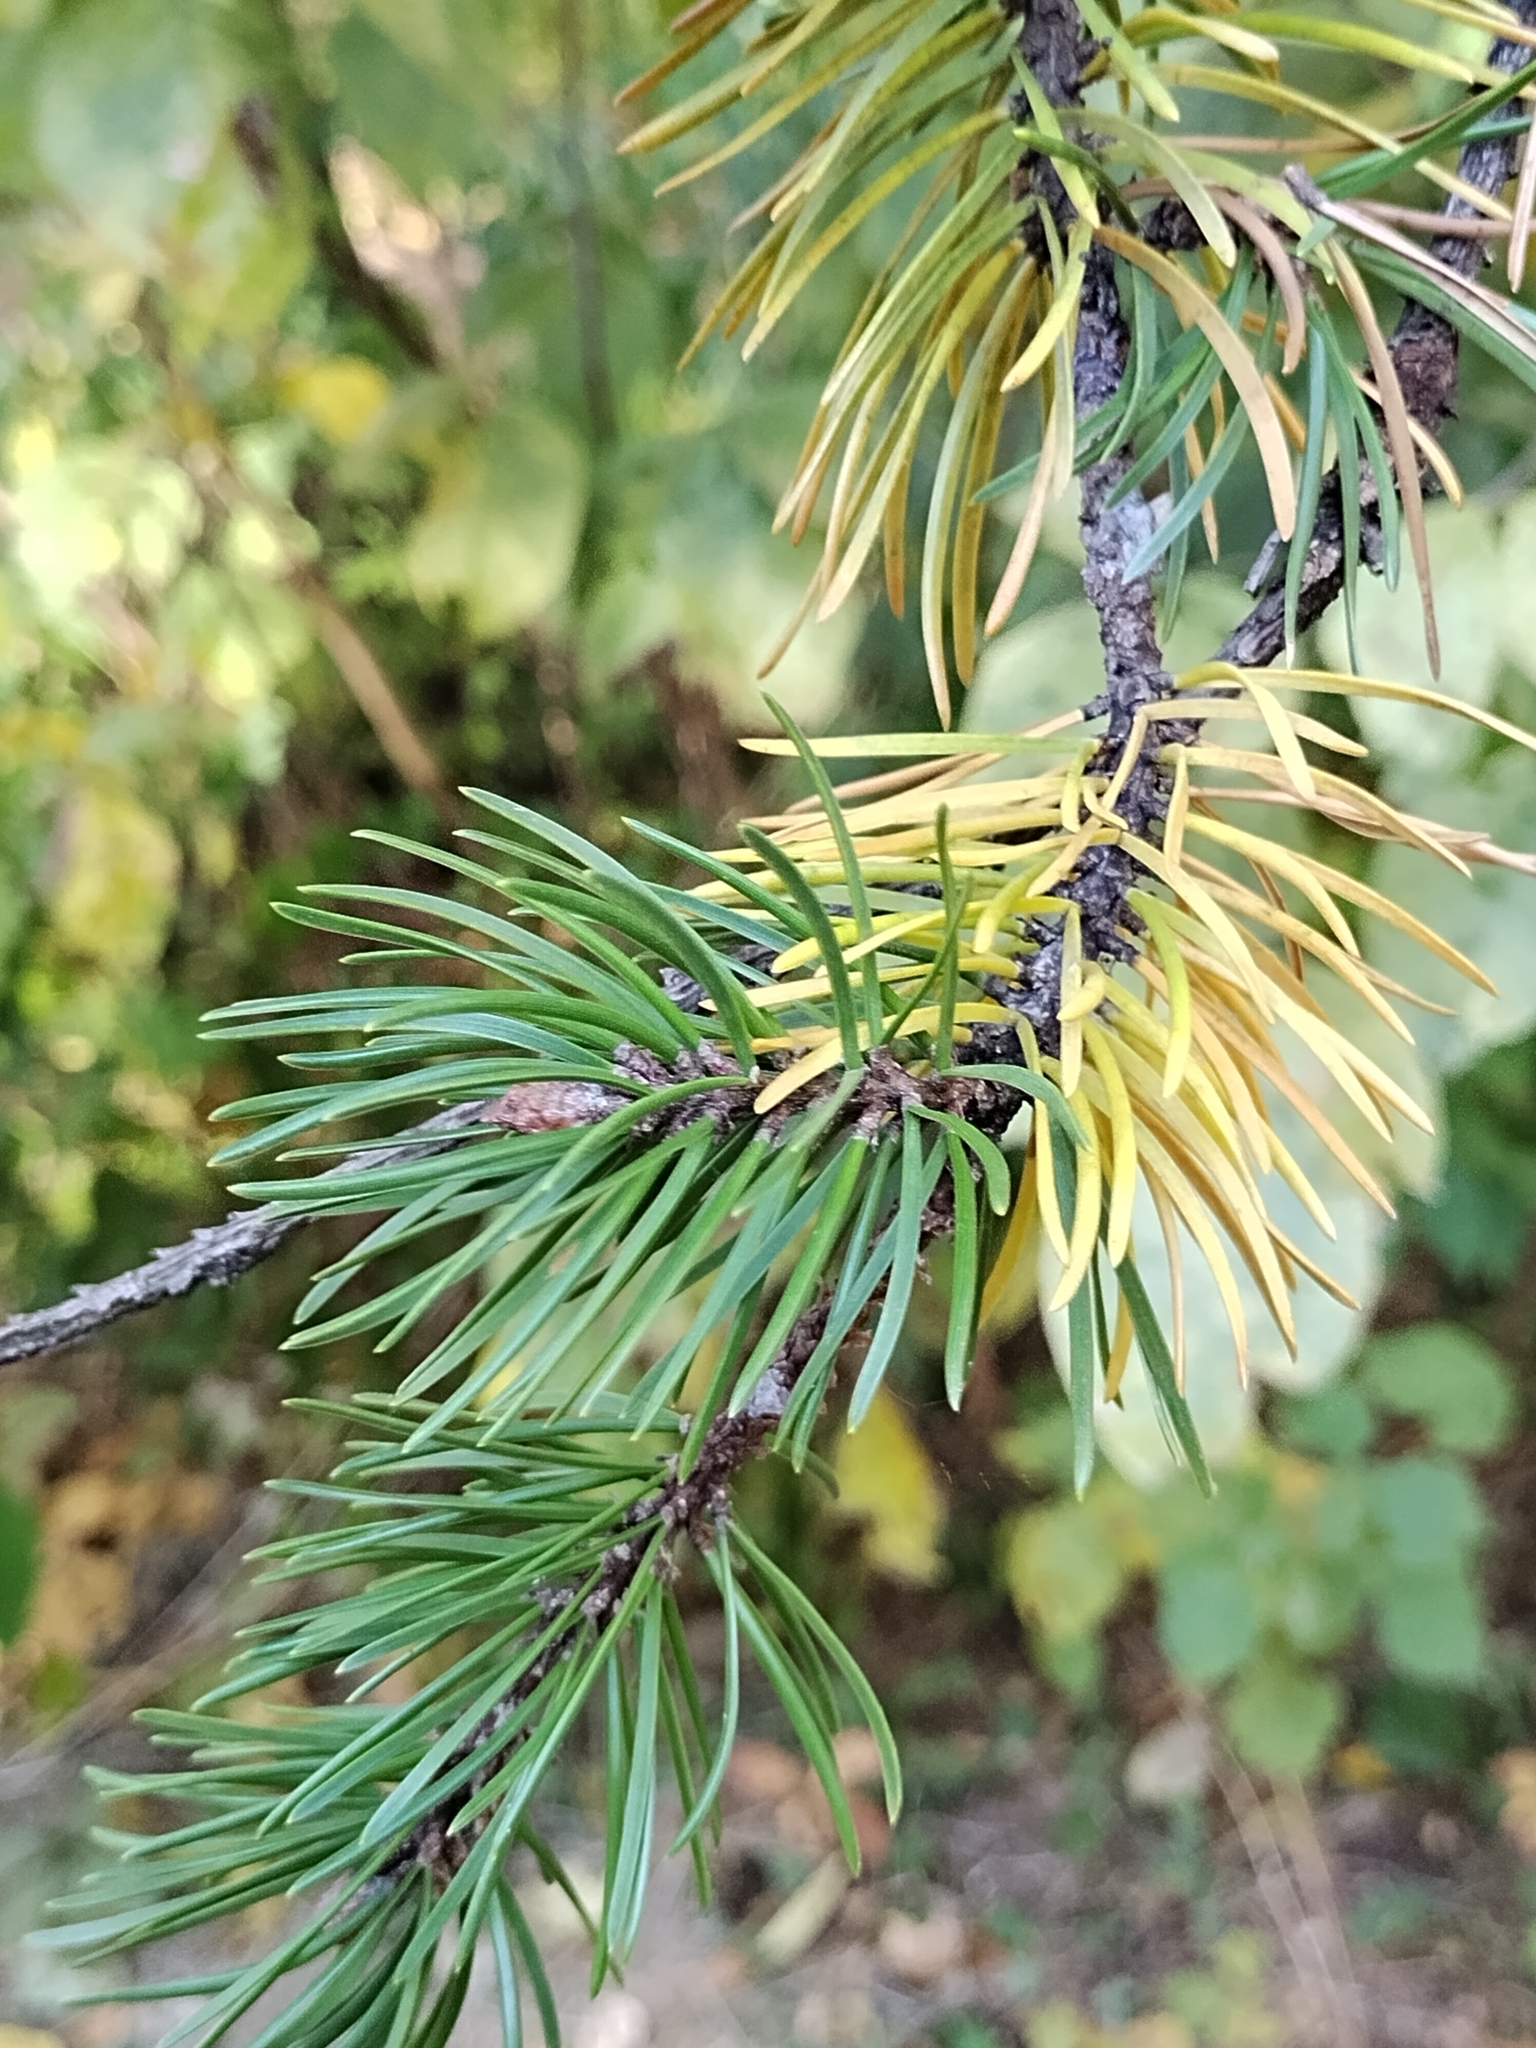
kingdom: Plantae
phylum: Tracheophyta
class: Pinopsida
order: Pinales
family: Pinaceae
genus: Pinus
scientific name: Pinus banksiana
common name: Jack pine
